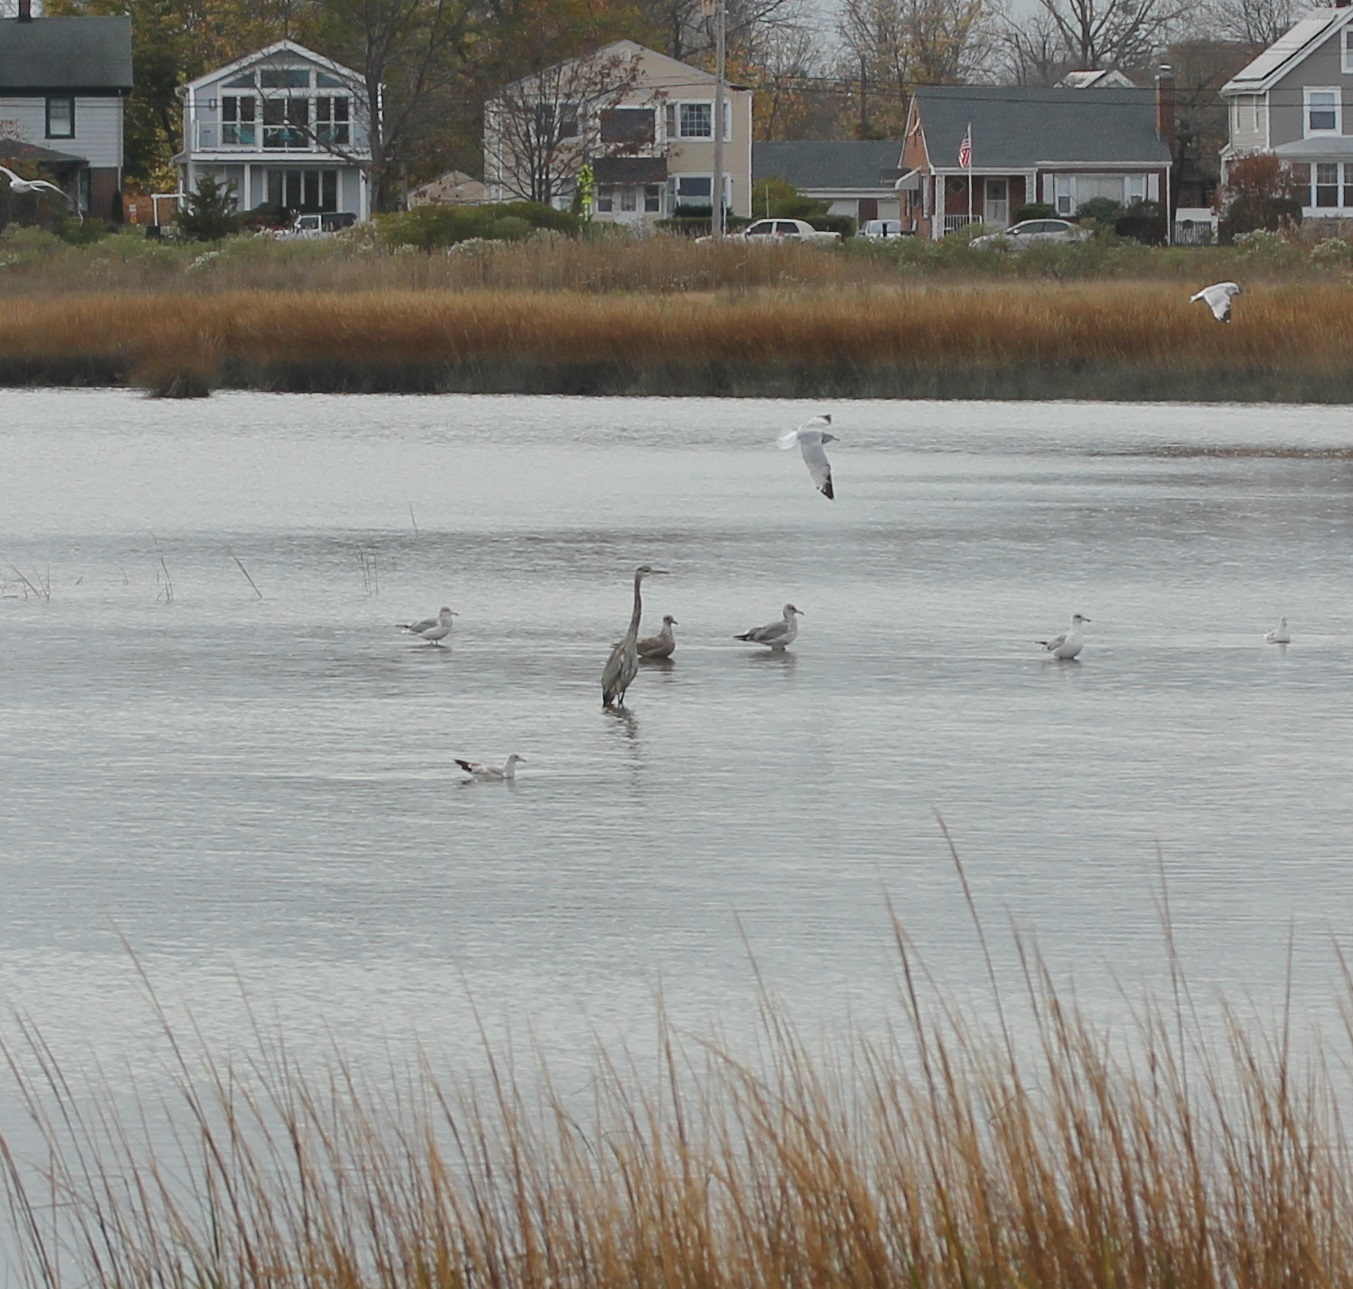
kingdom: Animalia
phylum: Chordata
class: Aves
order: Pelecaniformes
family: Ardeidae
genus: Ardea
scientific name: Ardea herodias
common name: Great blue heron
